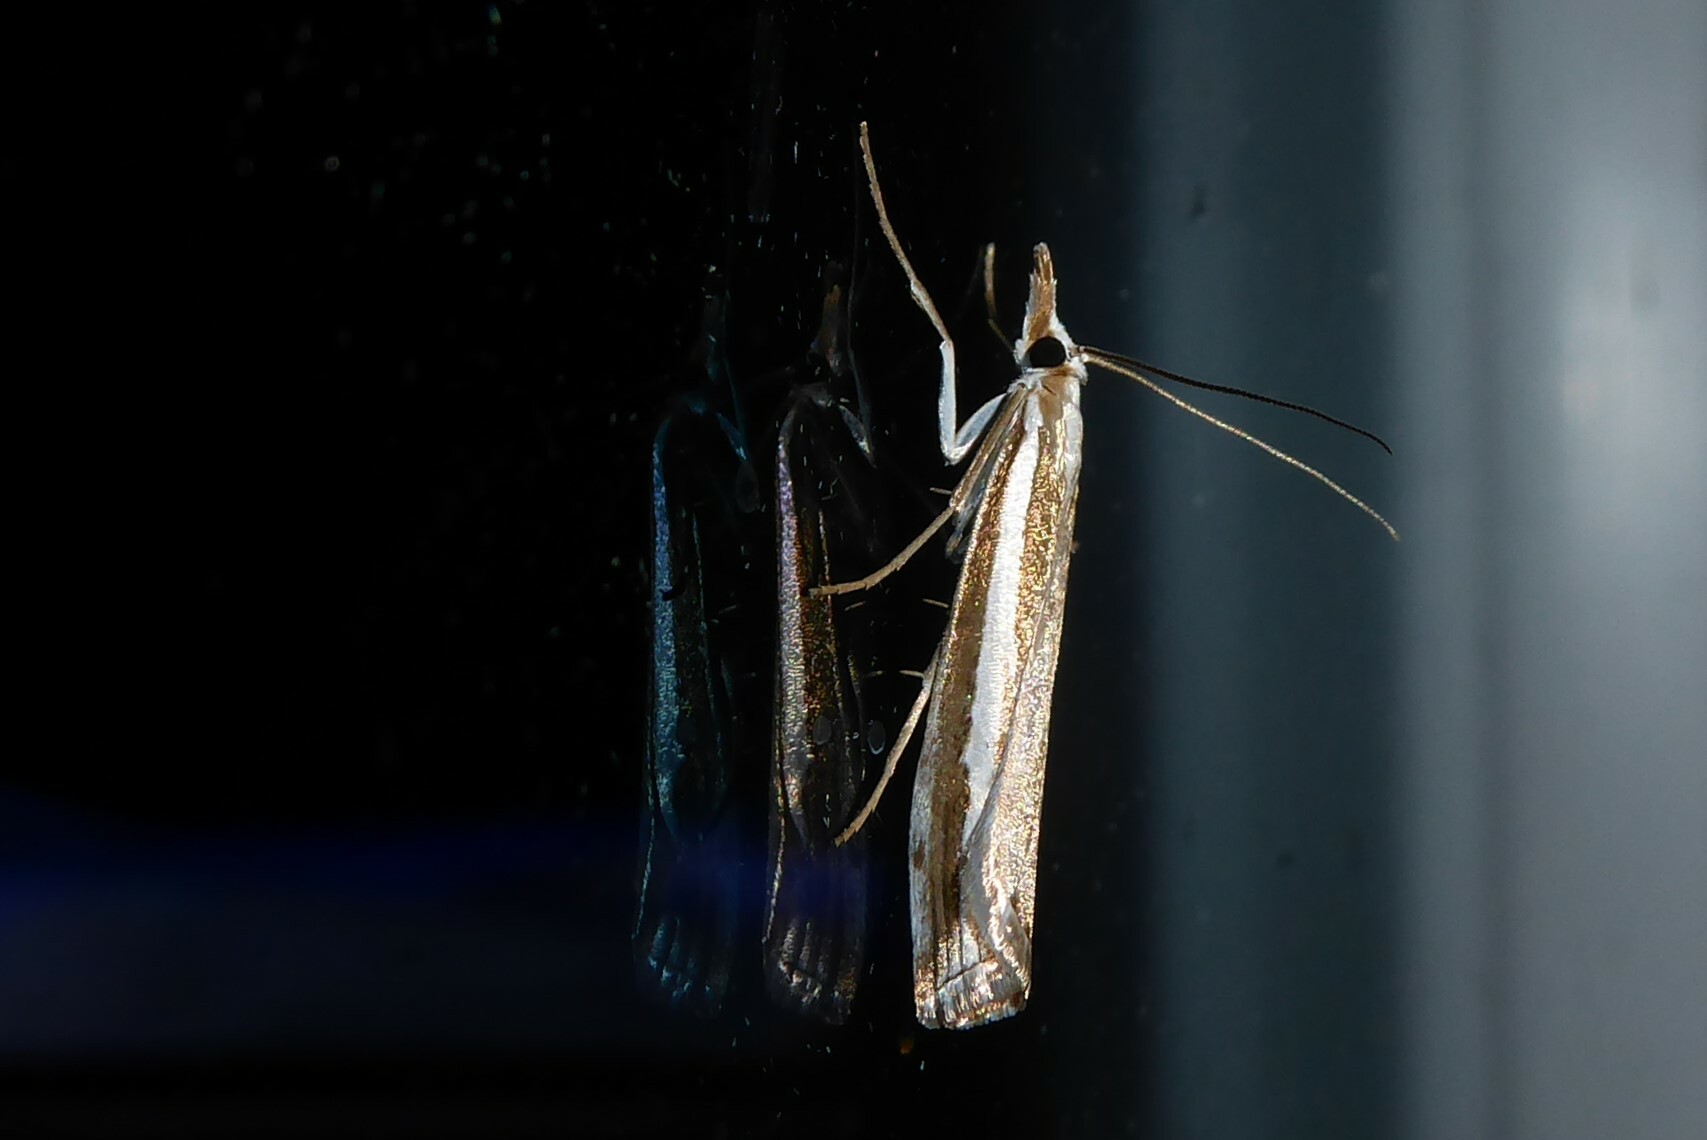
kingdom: Animalia
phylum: Arthropoda
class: Insecta
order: Lepidoptera
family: Crambidae
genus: Orocrambus
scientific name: Orocrambus vittellus
